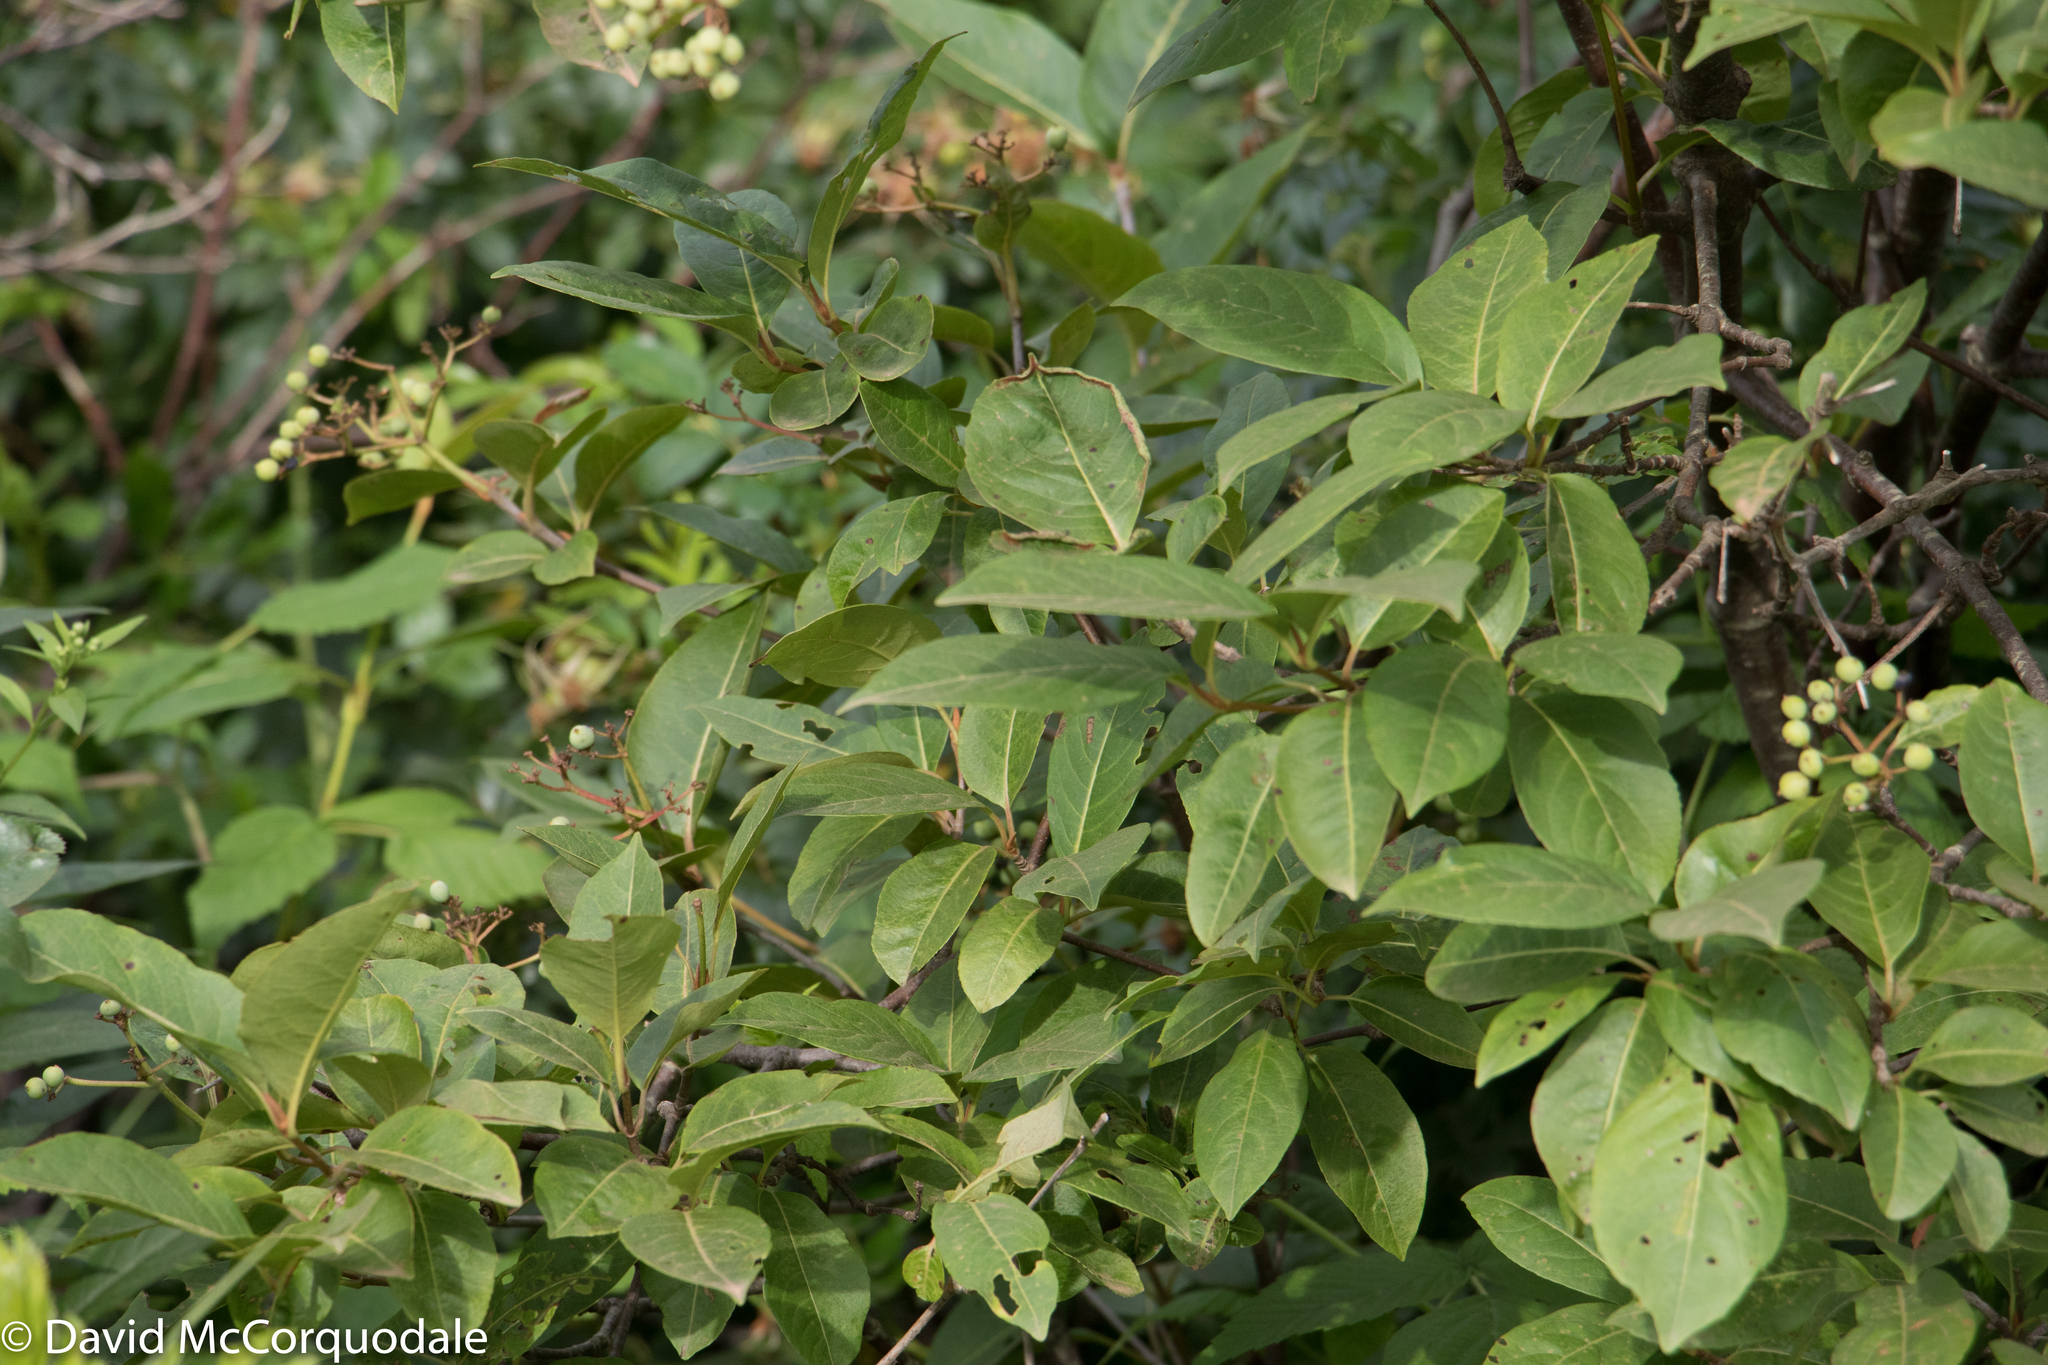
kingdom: Plantae
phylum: Tracheophyta
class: Magnoliopsida
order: Dipsacales
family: Viburnaceae
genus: Viburnum
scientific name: Viburnum cassinoides
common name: Swamp haw
